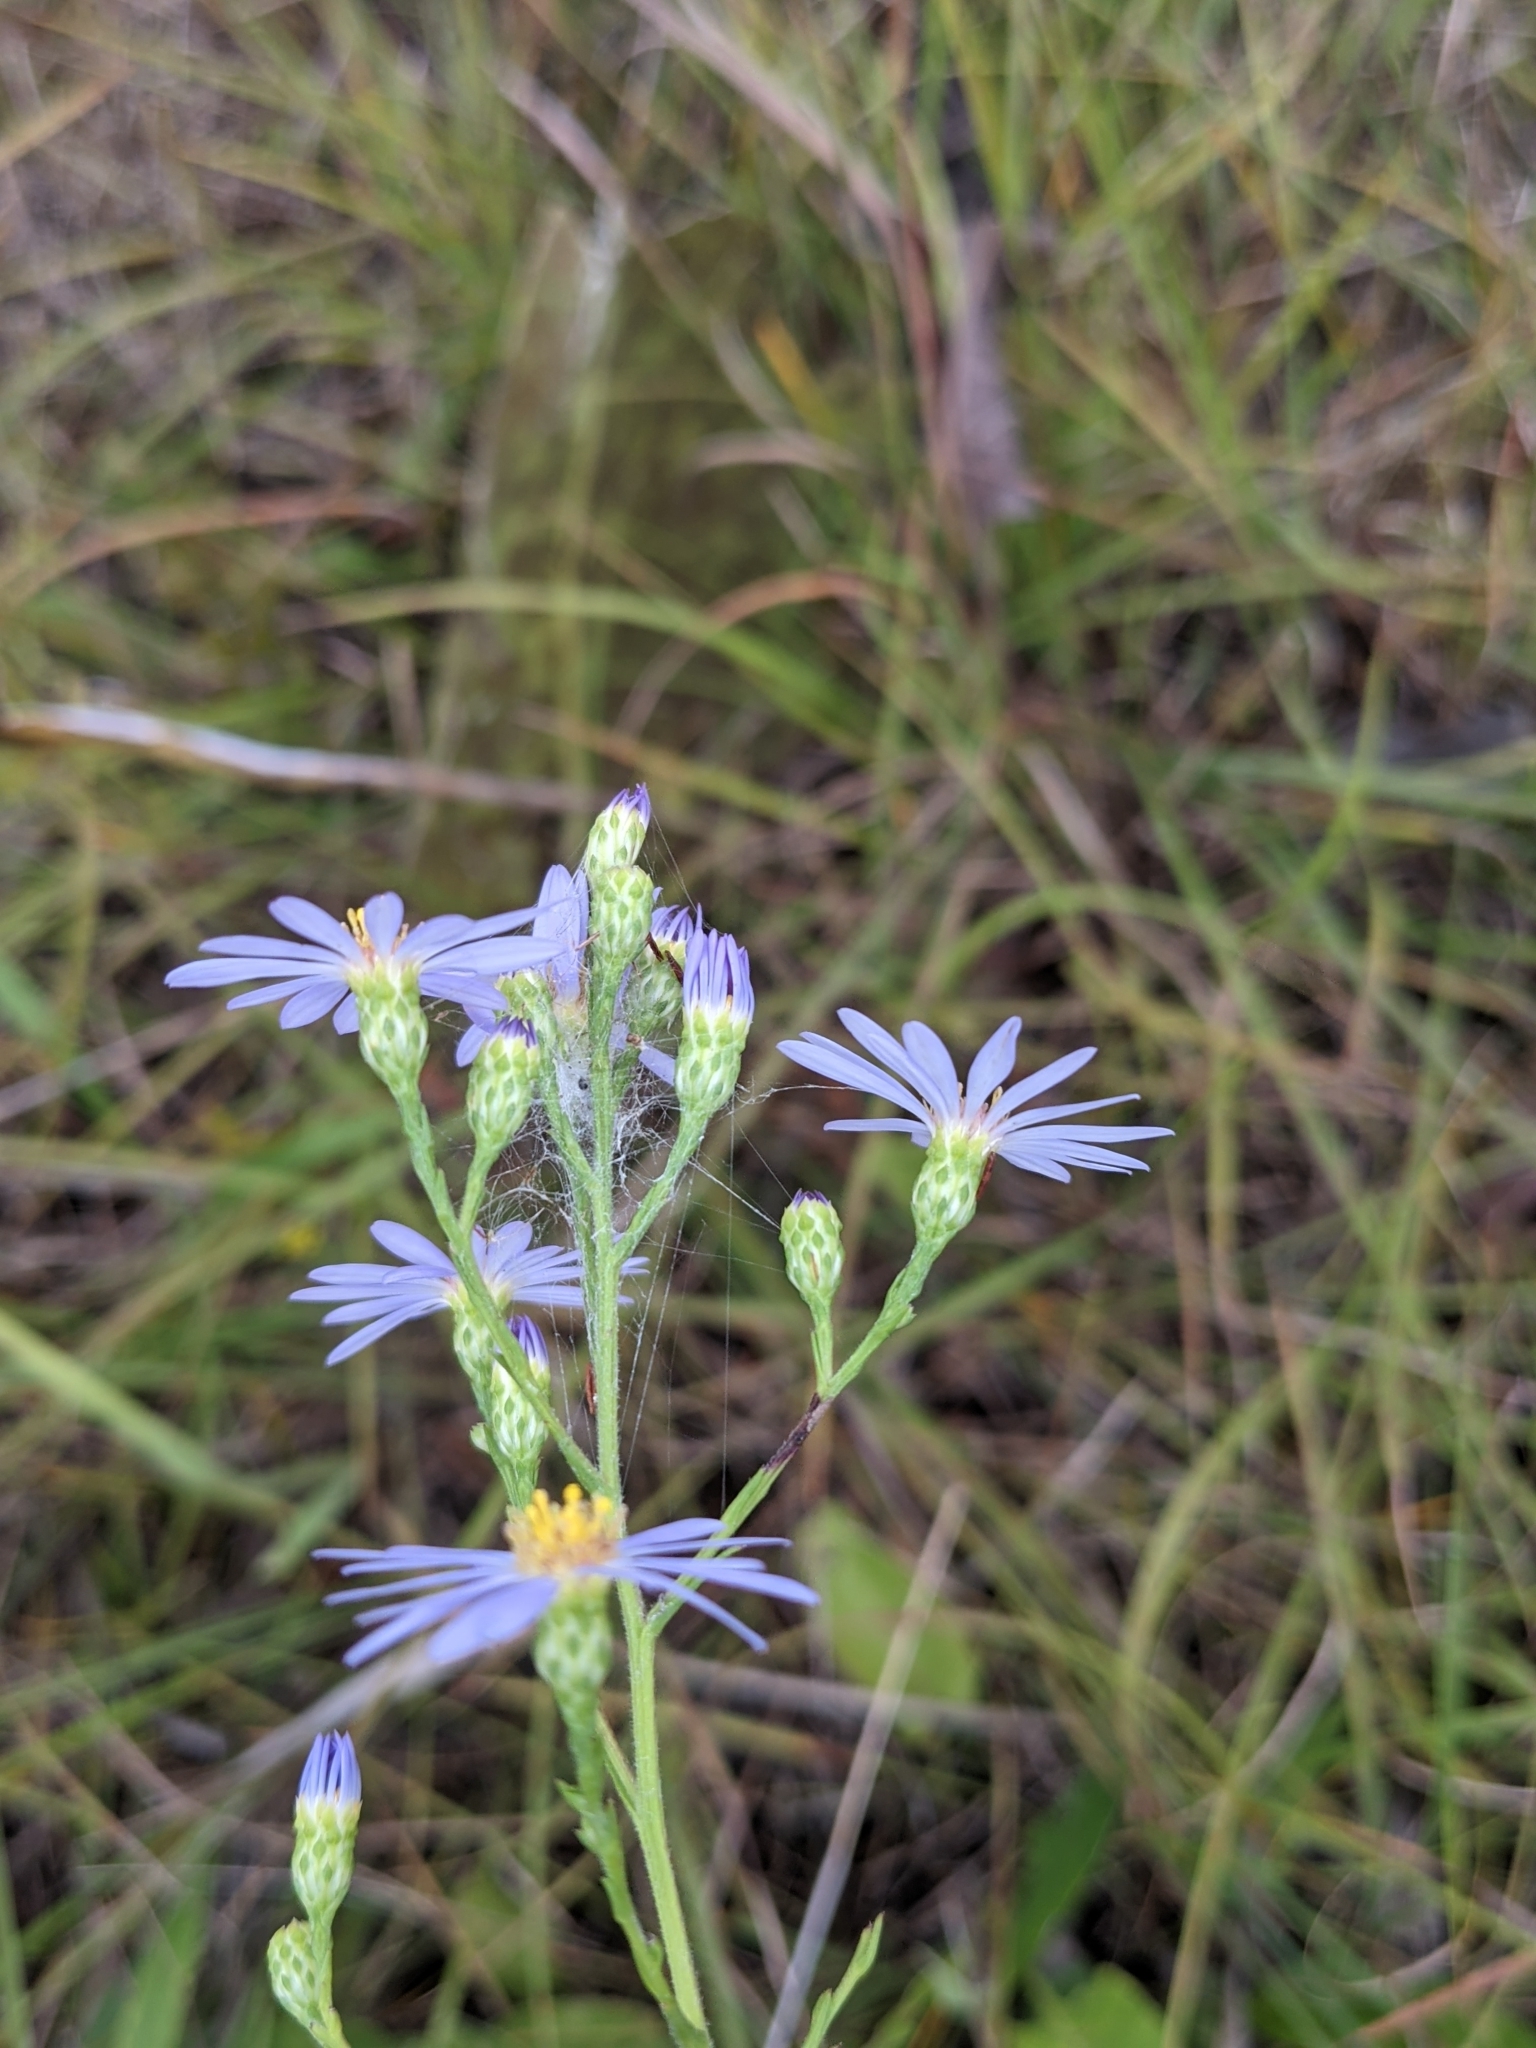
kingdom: Plantae
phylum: Tracheophyta
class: Magnoliopsida
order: Asterales
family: Asteraceae
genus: Symphyotrichum
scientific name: Symphyotrichum oolentangiense
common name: Azure aster
